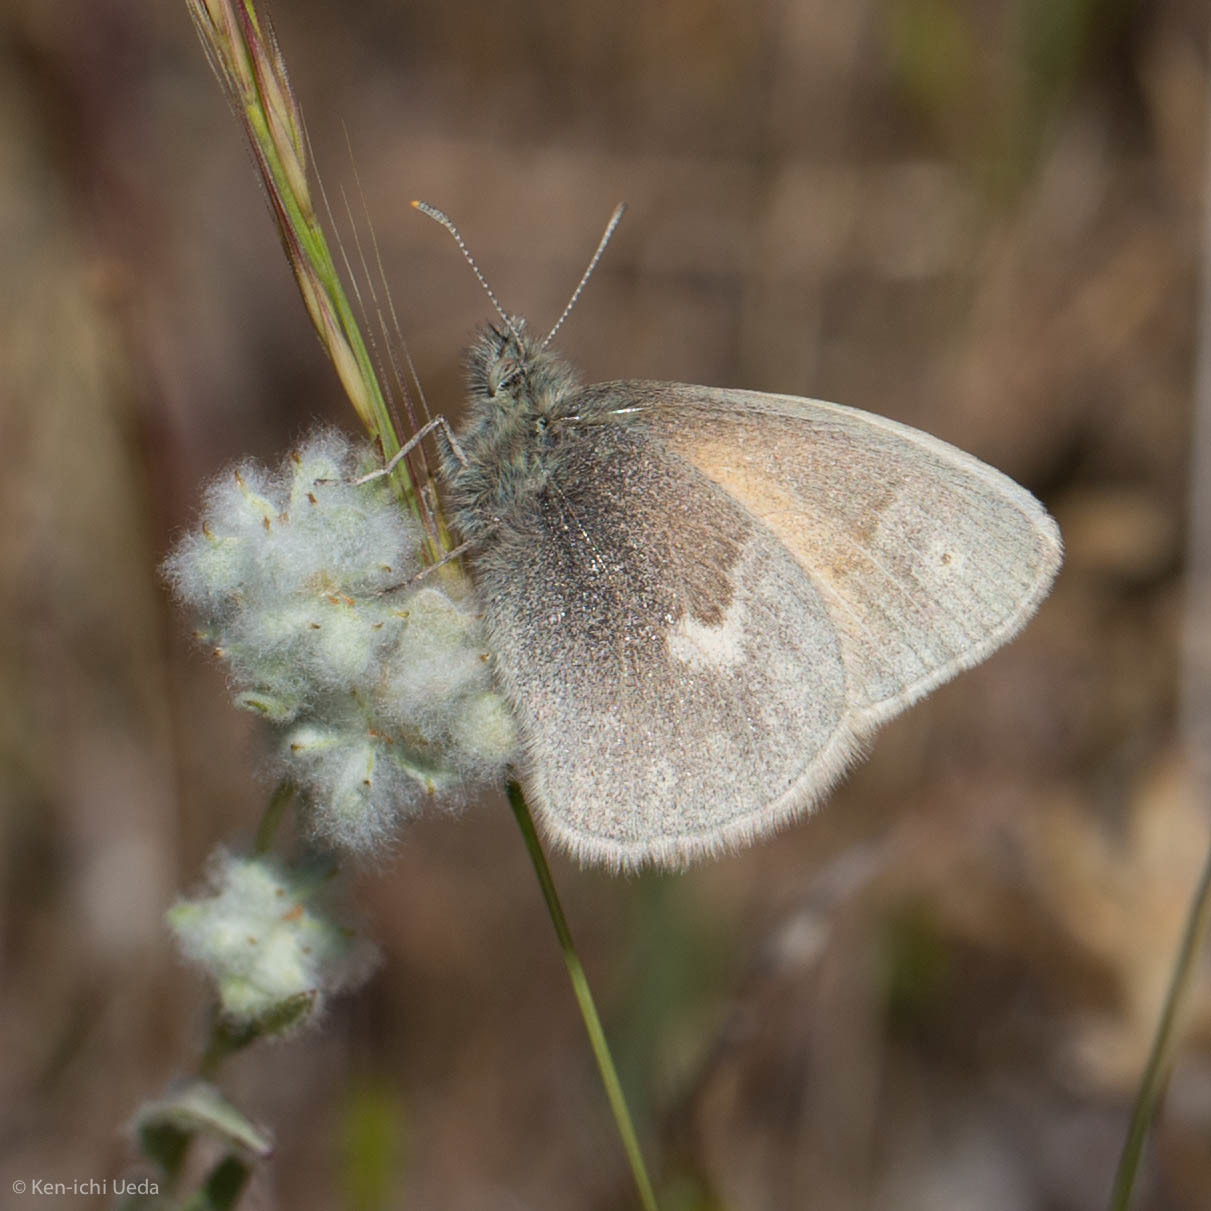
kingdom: Animalia
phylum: Arthropoda
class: Insecta
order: Lepidoptera
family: Nymphalidae
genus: Coenonympha
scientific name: Coenonympha california
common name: Common ringlet
